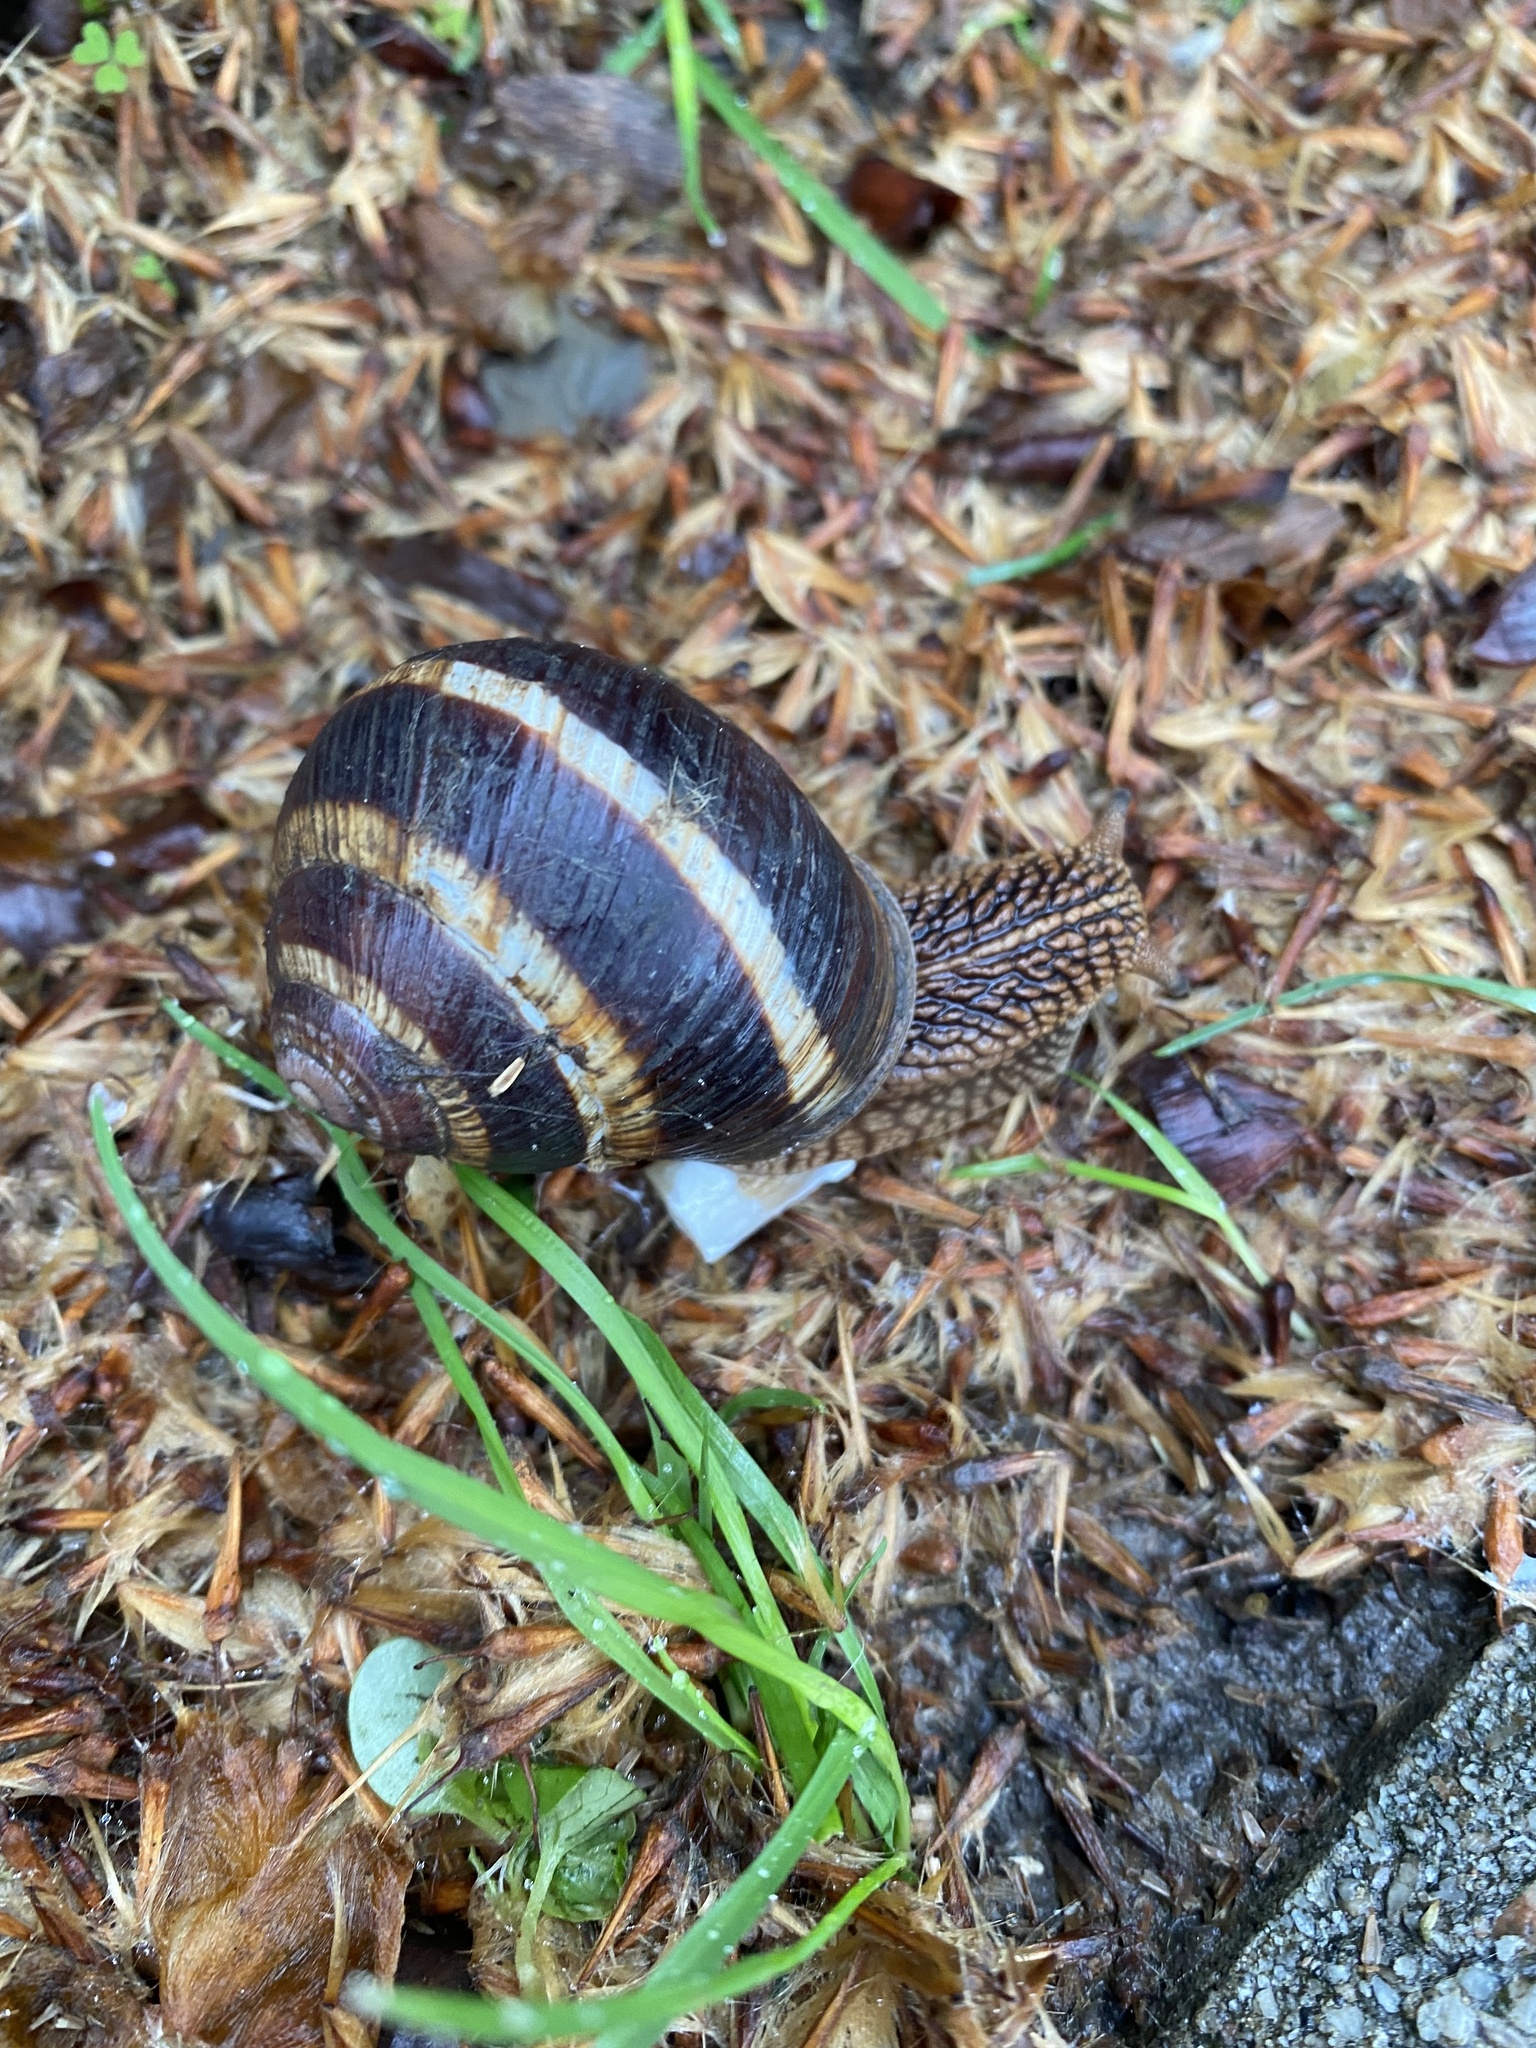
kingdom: Animalia
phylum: Mollusca
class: Gastropoda
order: Stylommatophora
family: Helicidae
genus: Helix
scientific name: Helix lucorum
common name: Turkish snail
